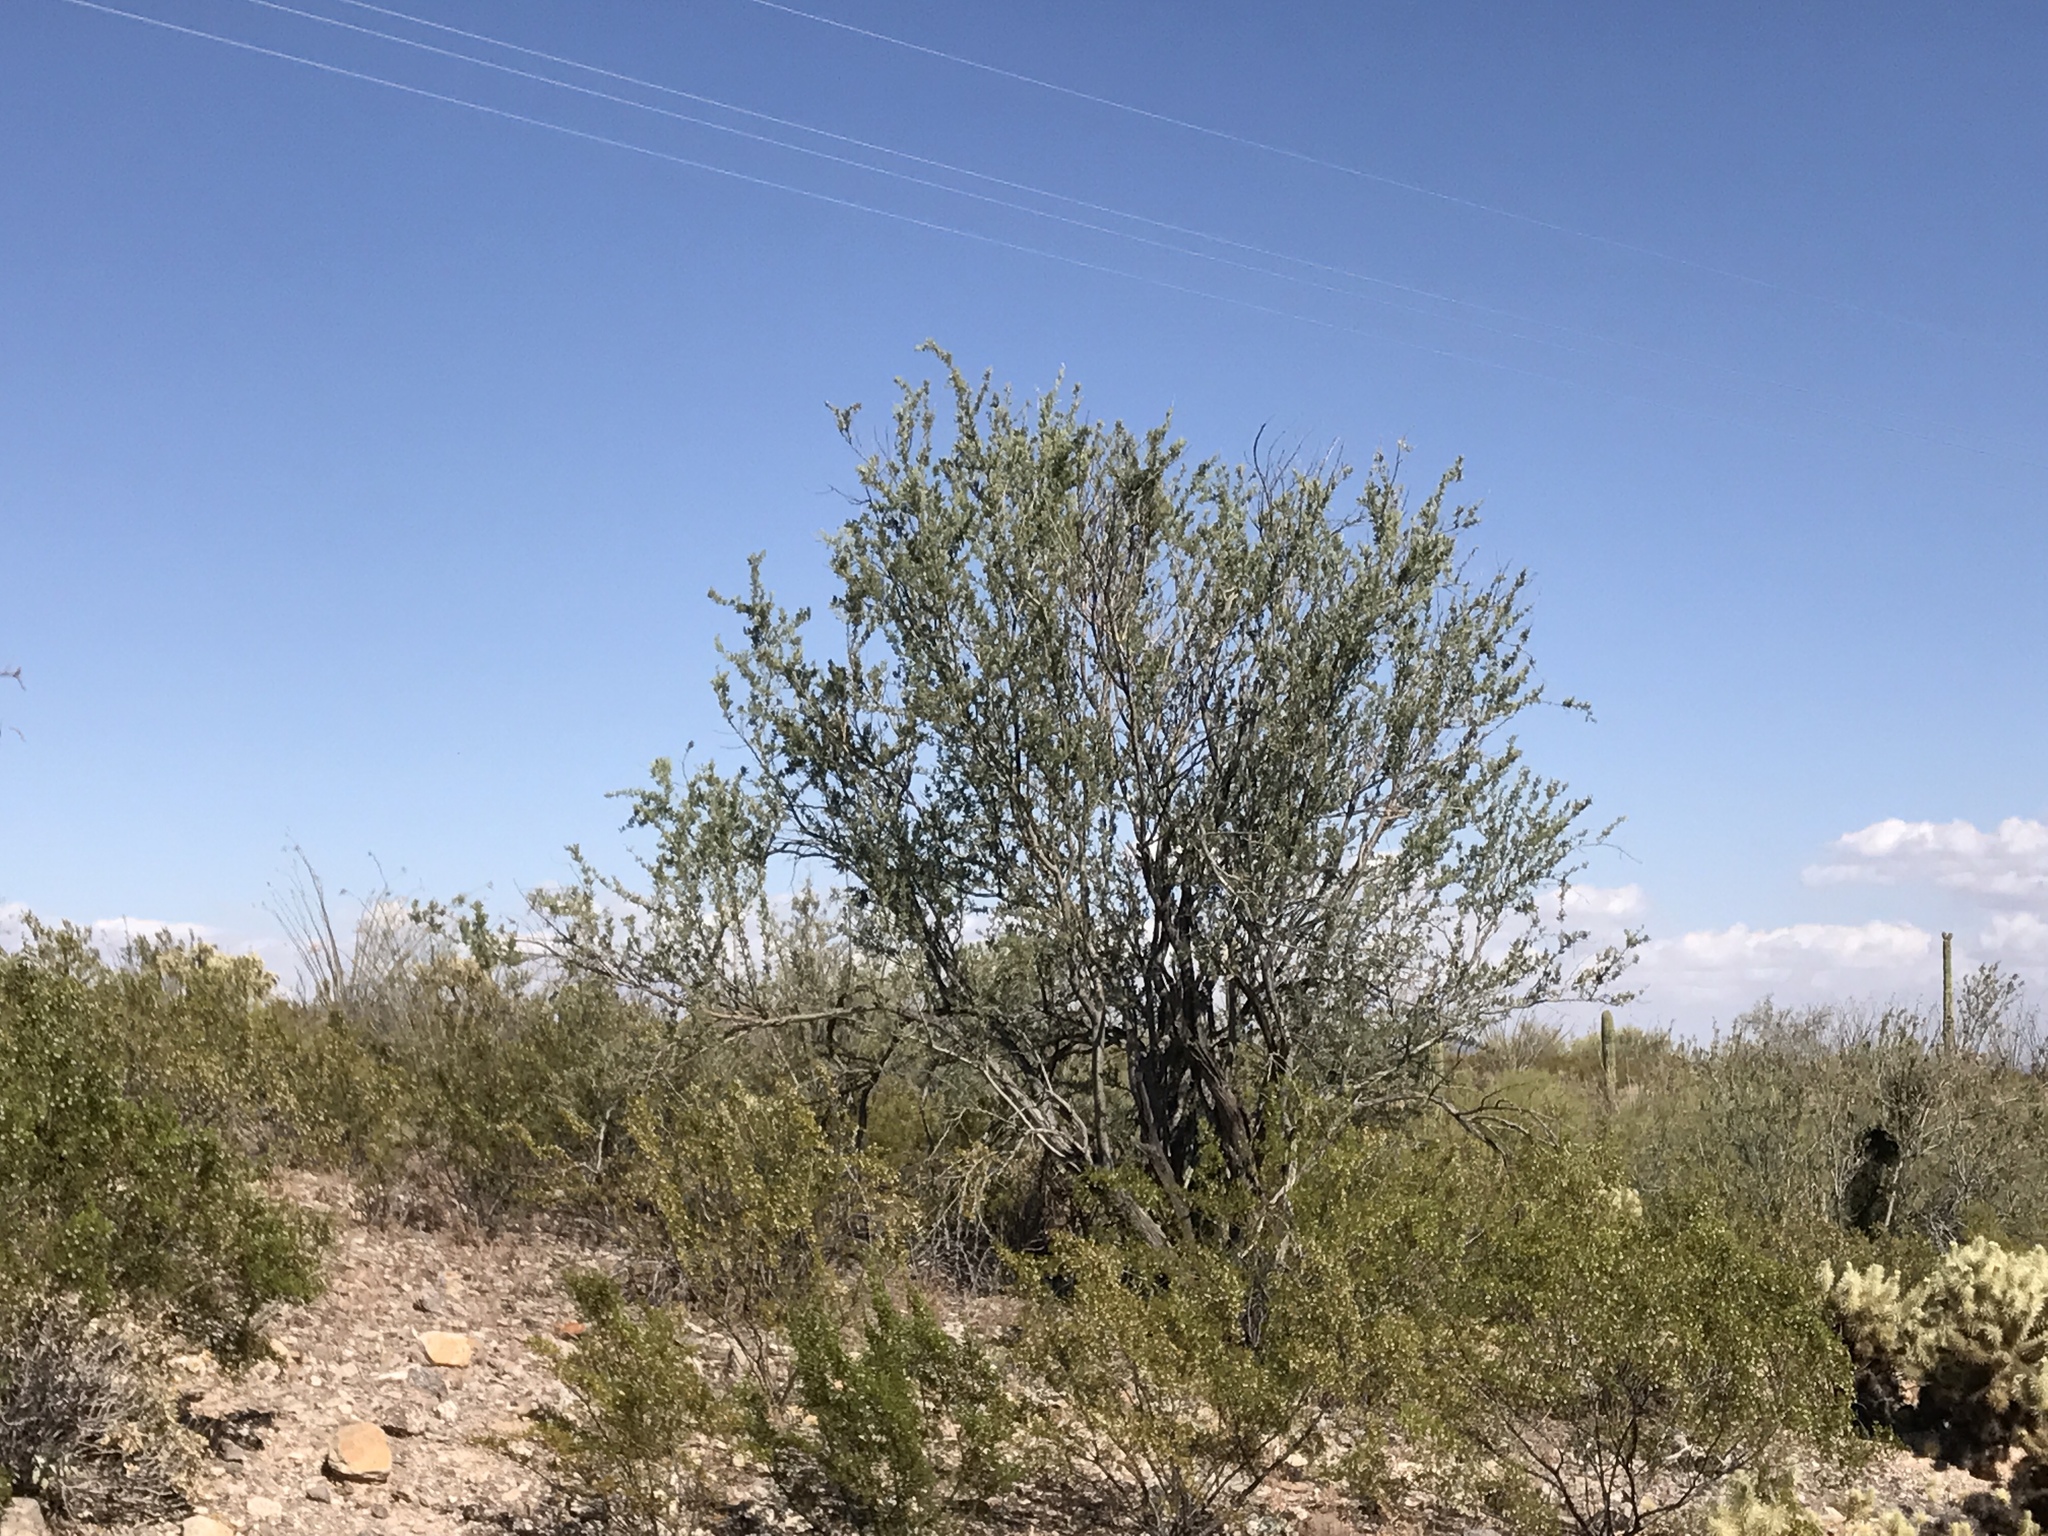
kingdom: Plantae
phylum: Tracheophyta
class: Magnoliopsida
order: Fabales
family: Fabaceae
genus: Olneya
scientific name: Olneya tesota
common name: Desert ironwood
